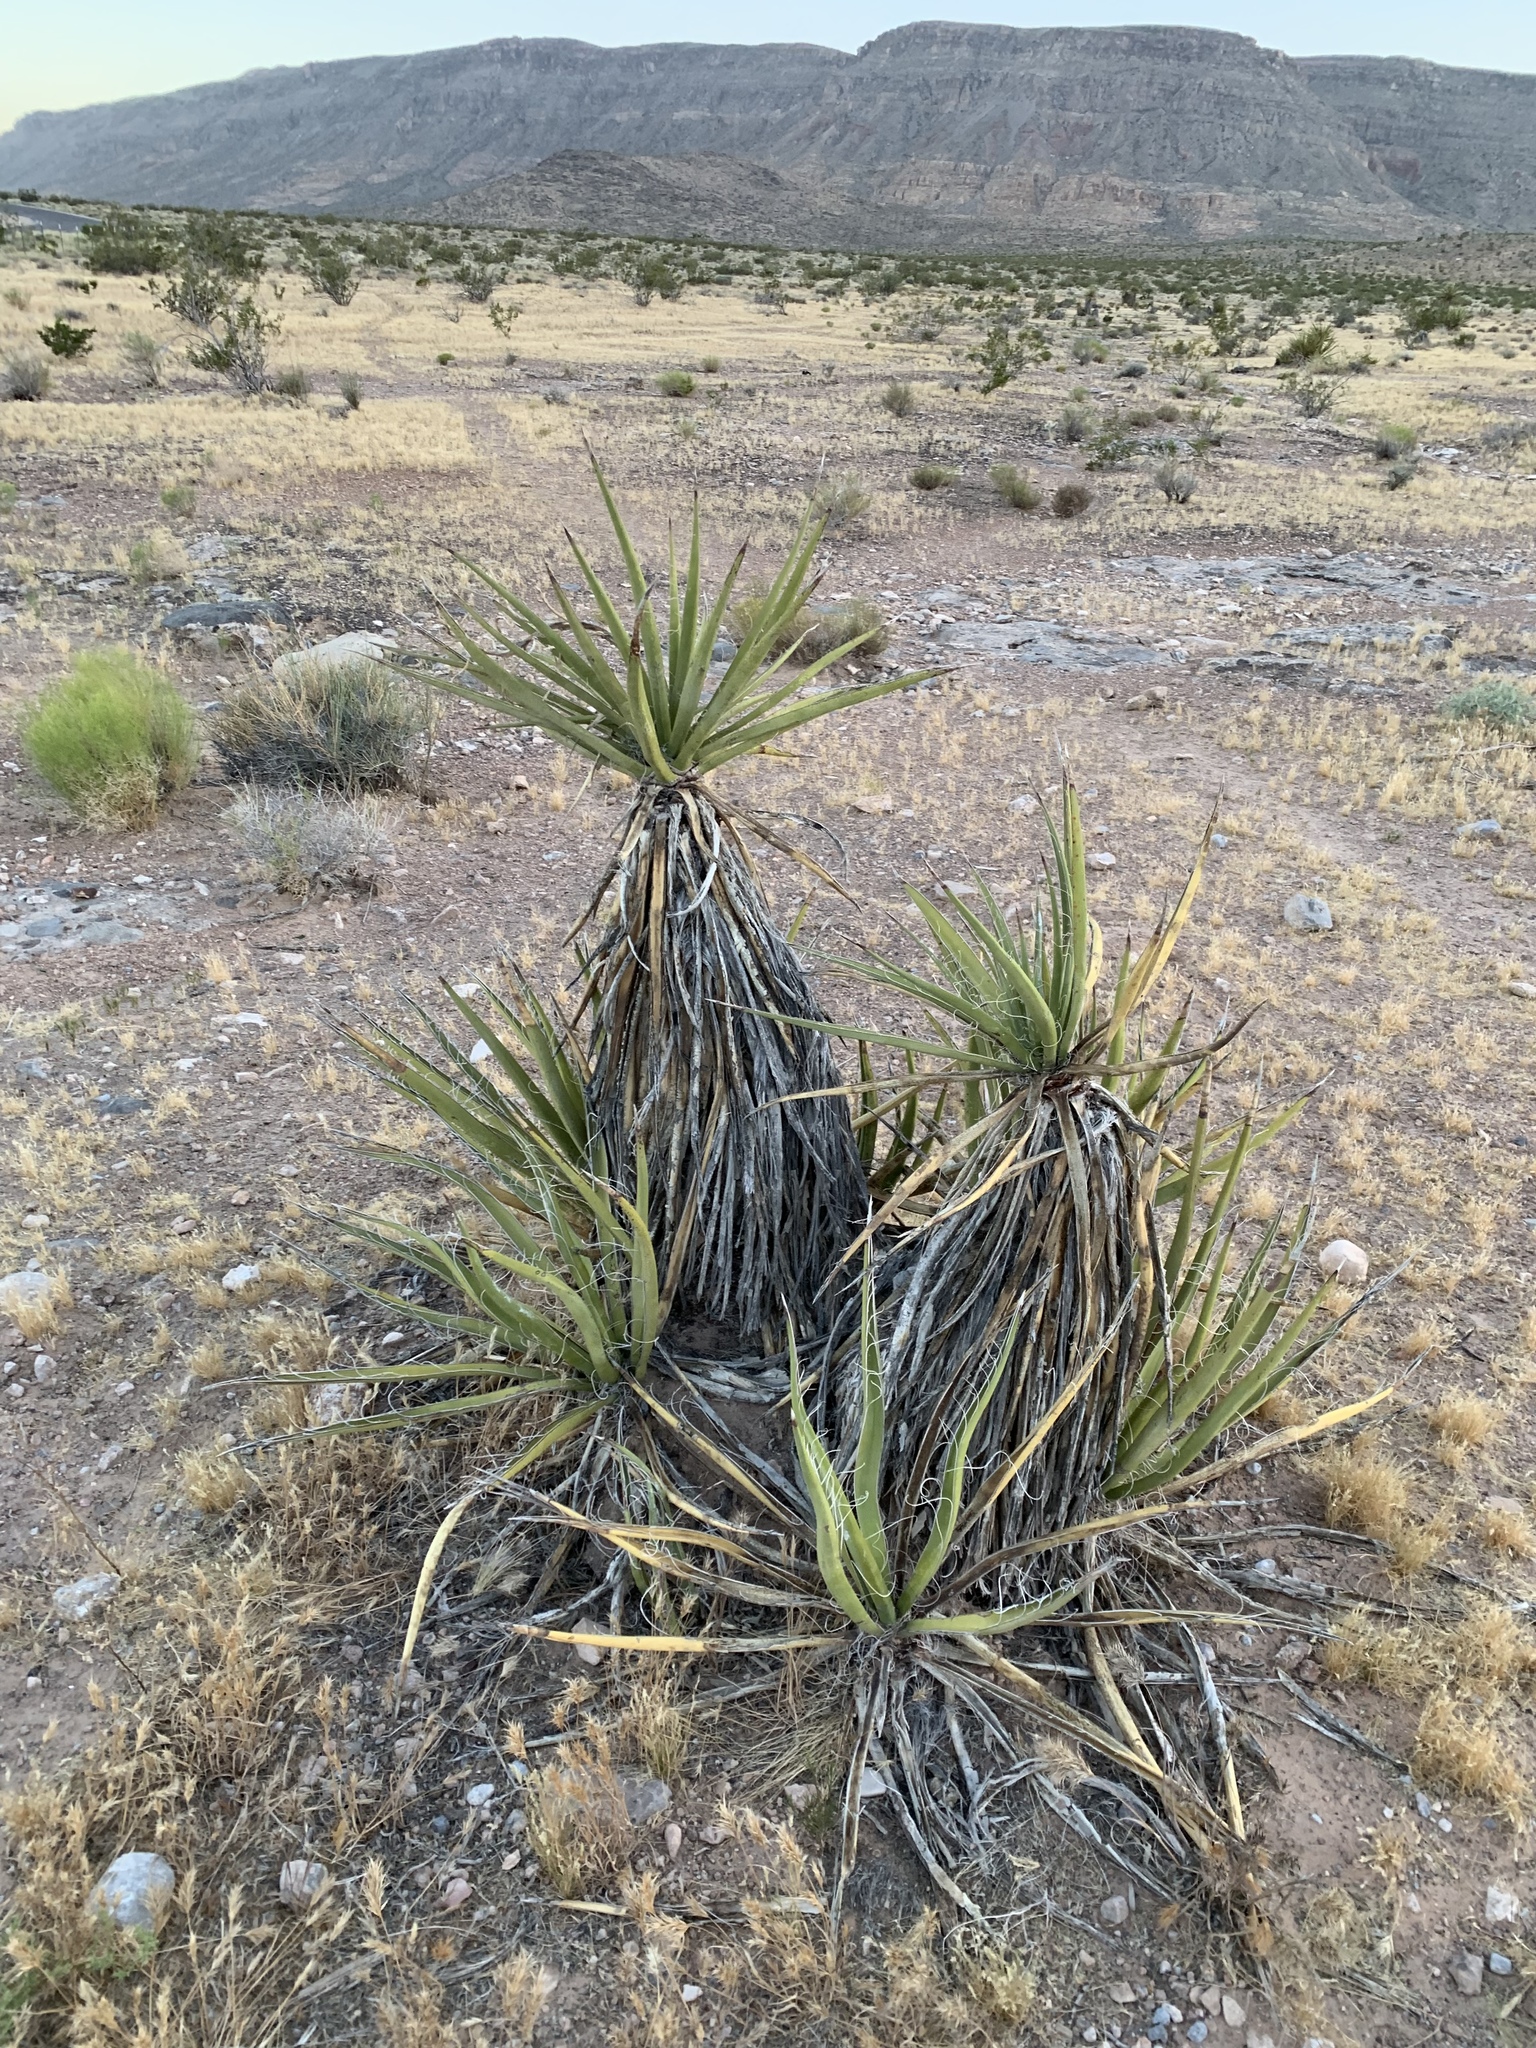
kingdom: Plantae
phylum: Tracheophyta
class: Liliopsida
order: Asparagales
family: Asparagaceae
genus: Yucca
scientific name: Yucca schidigera
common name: Mojave yucca
